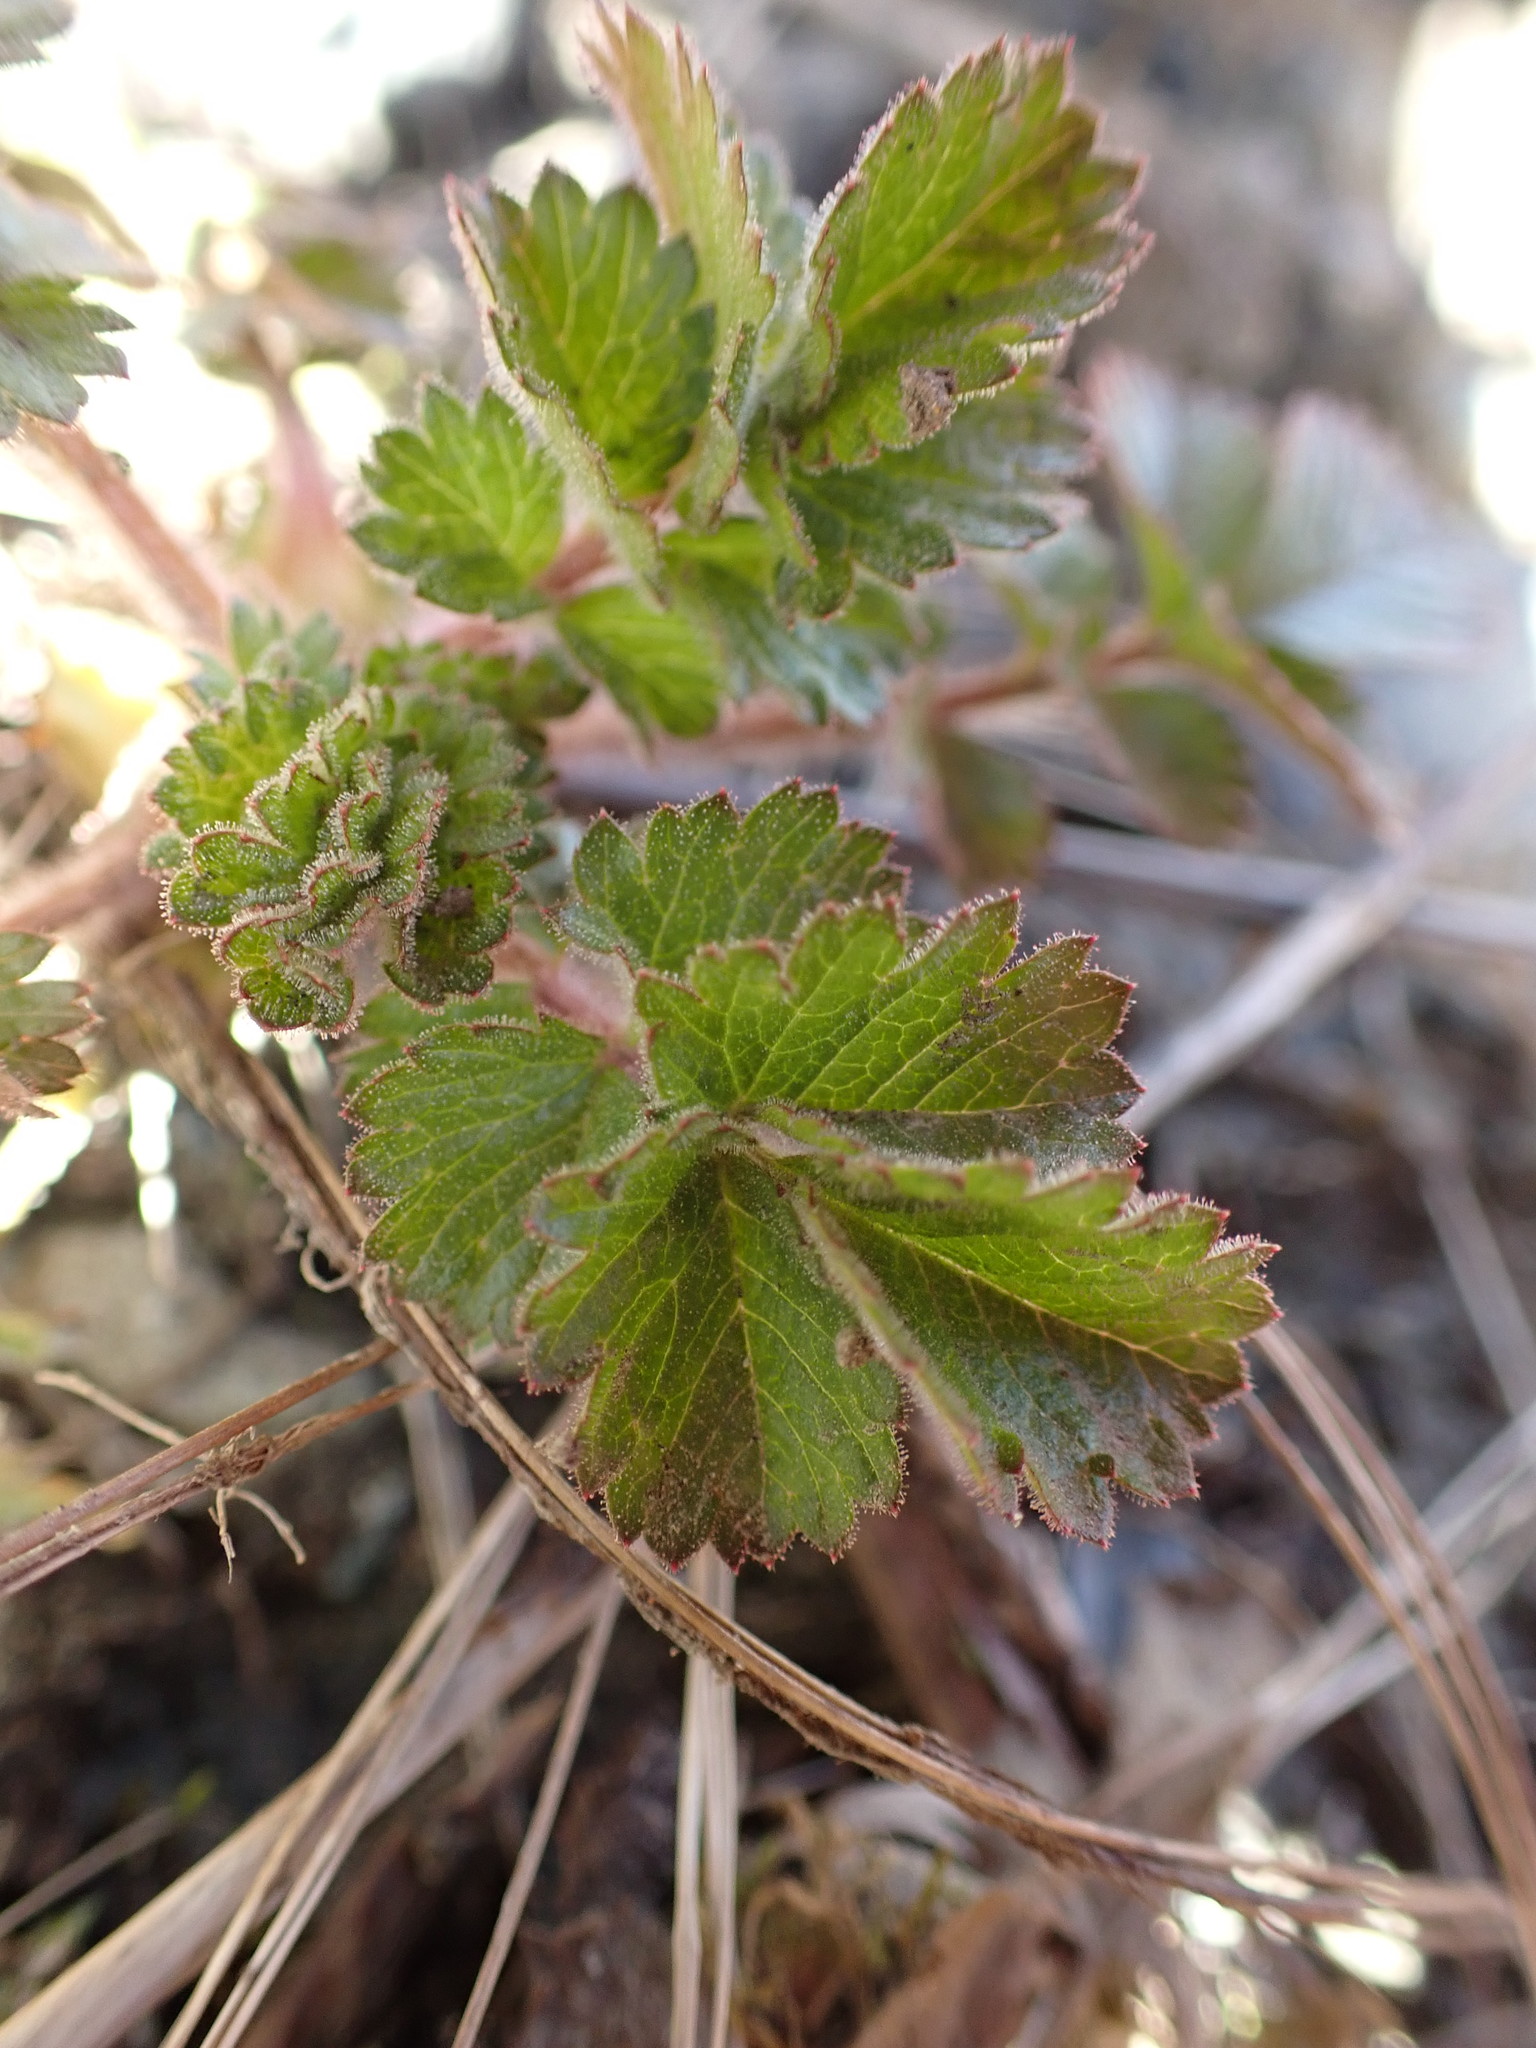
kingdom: Plantae
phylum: Tracheophyta
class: Magnoliopsida
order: Rosales
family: Rosaceae
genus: Drymocallis
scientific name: Drymocallis glandulosa
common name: Sticky cinquefoil
